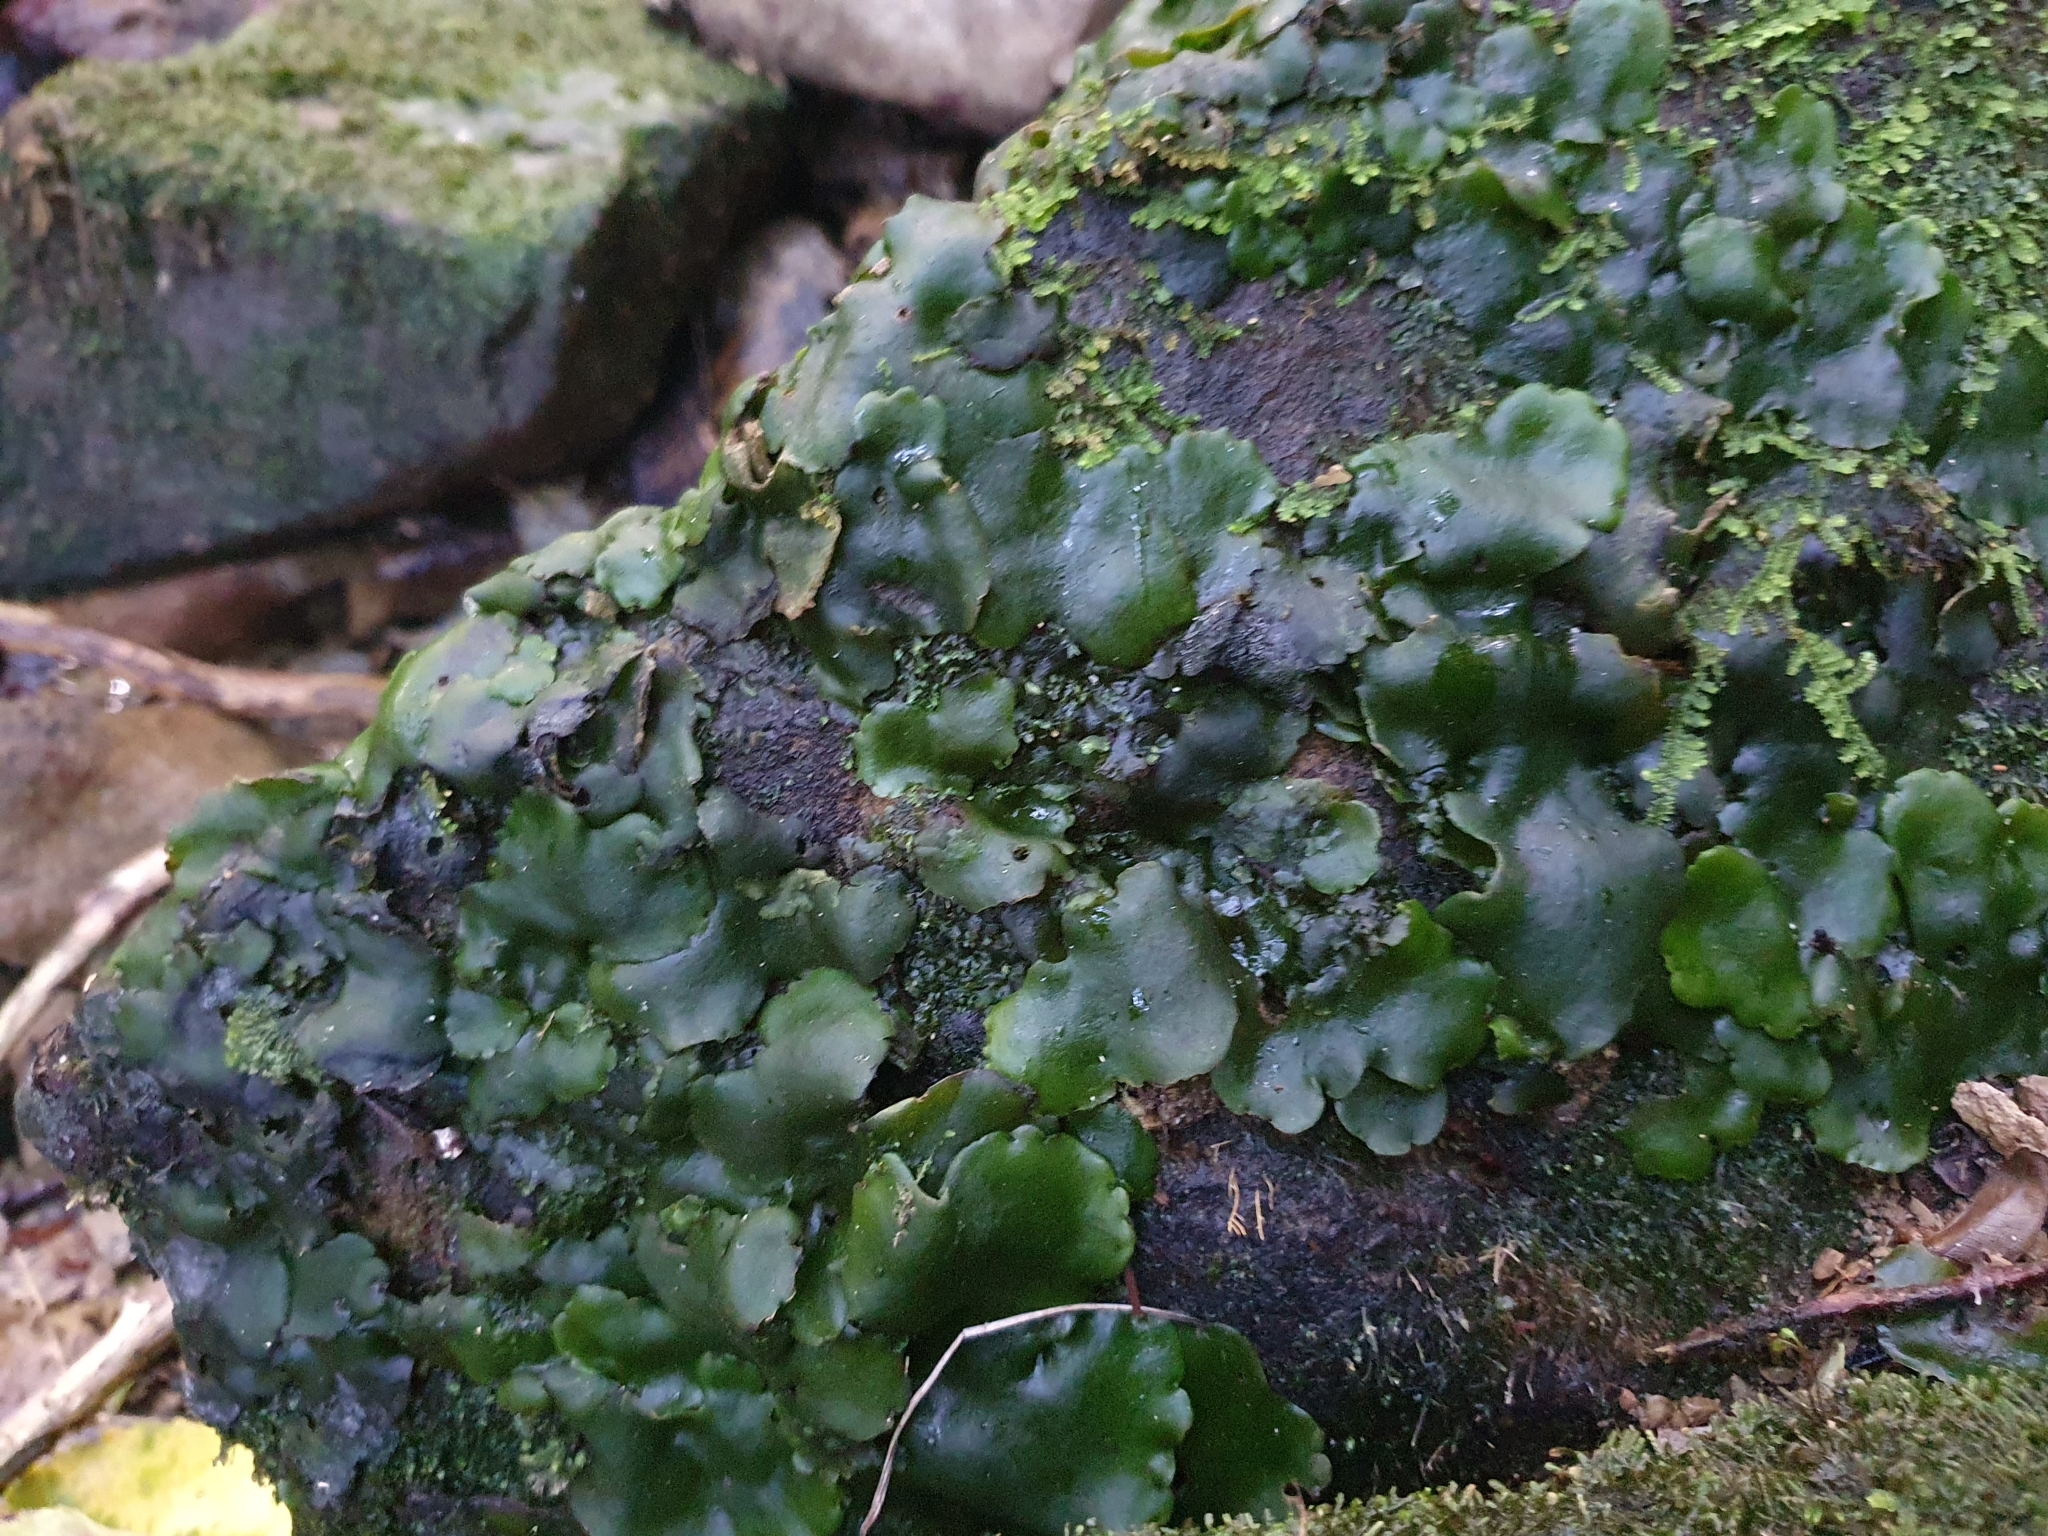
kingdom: Plantae
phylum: Marchantiophyta
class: Marchantiopsida
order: Marchantiales
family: Monocleaceae
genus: Monoclea
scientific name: Monoclea forsteri
